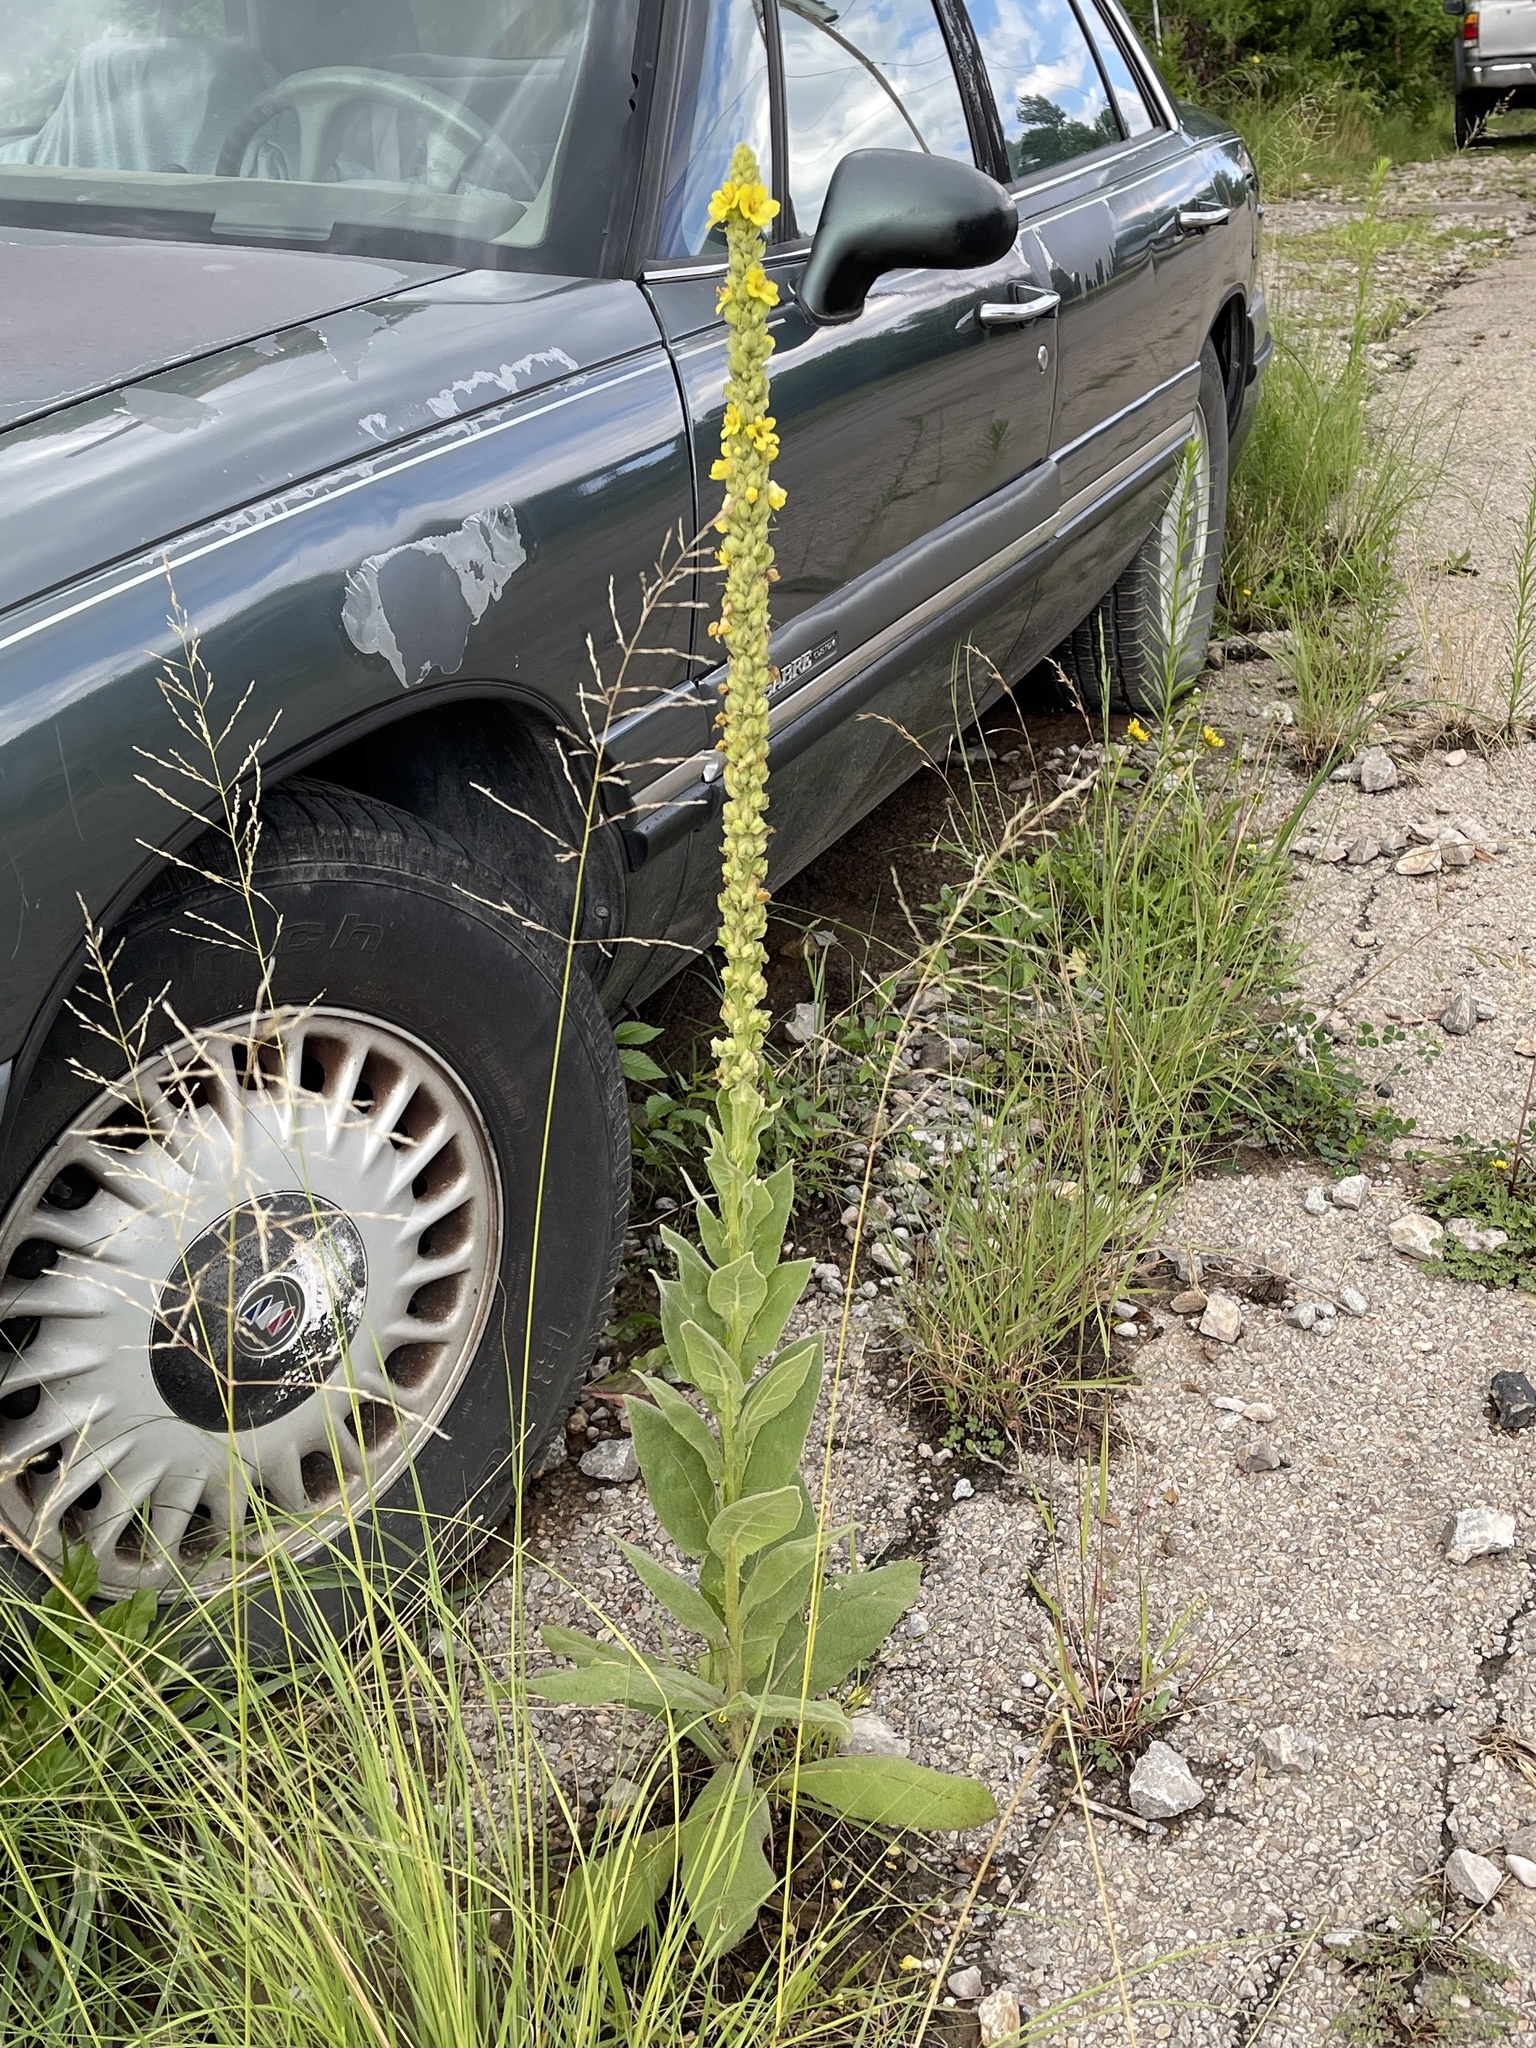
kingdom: Plantae
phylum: Tracheophyta
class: Magnoliopsida
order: Lamiales
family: Scrophulariaceae
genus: Verbascum
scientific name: Verbascum thapsus
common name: Common mullein
